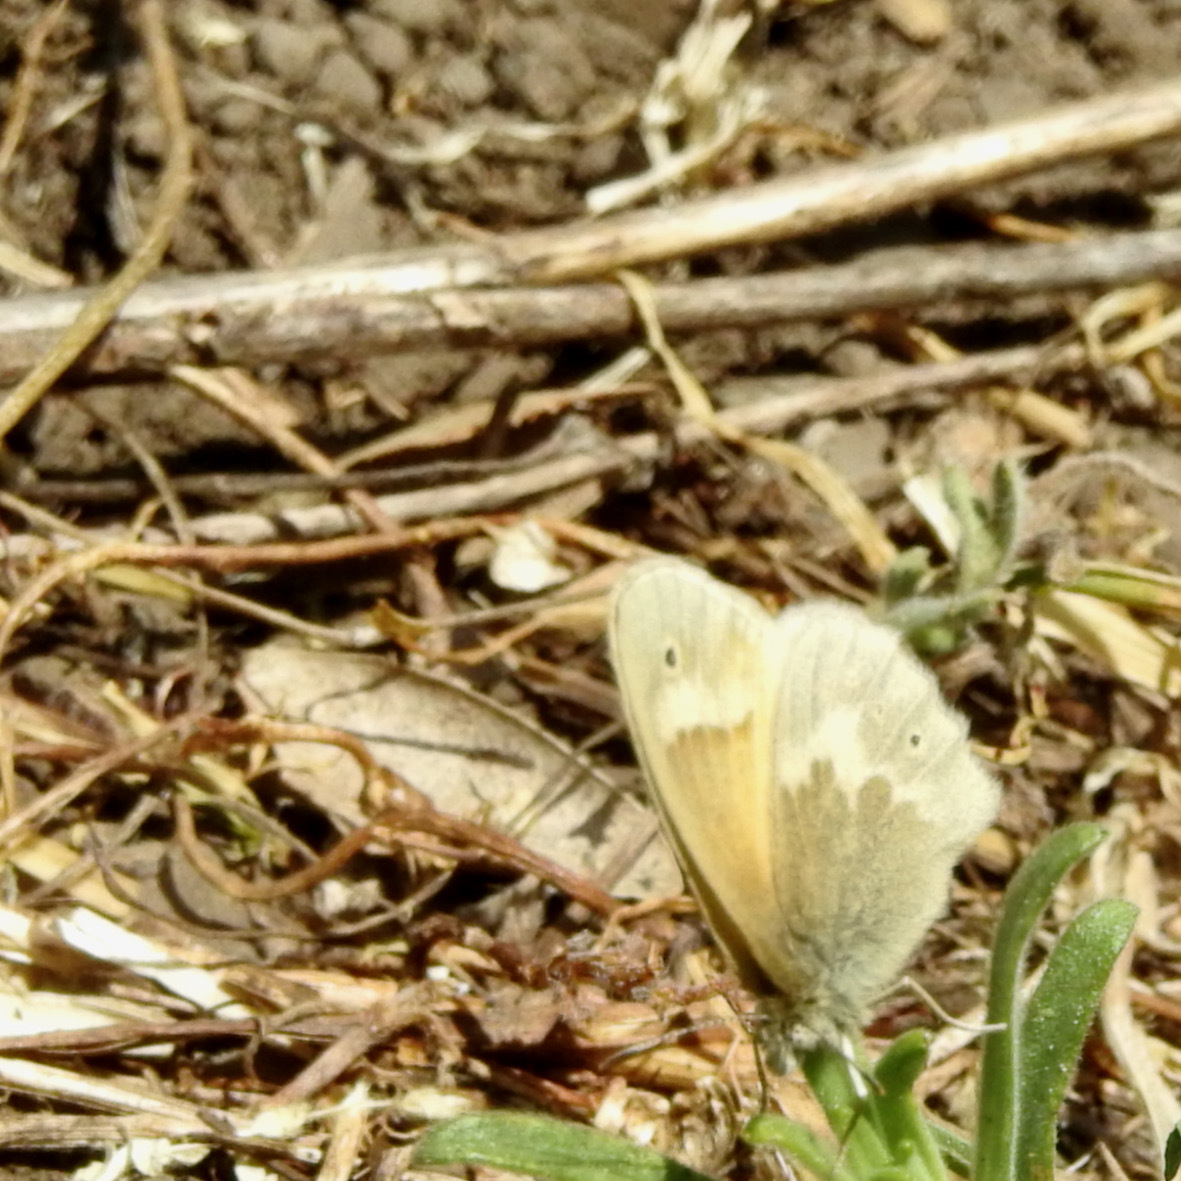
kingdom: Animalia
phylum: Arthropoda
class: Insecta
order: Lepidoptera
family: Nymphalidae
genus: Coenonympha
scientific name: Coenonympha california
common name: Common ringlet
